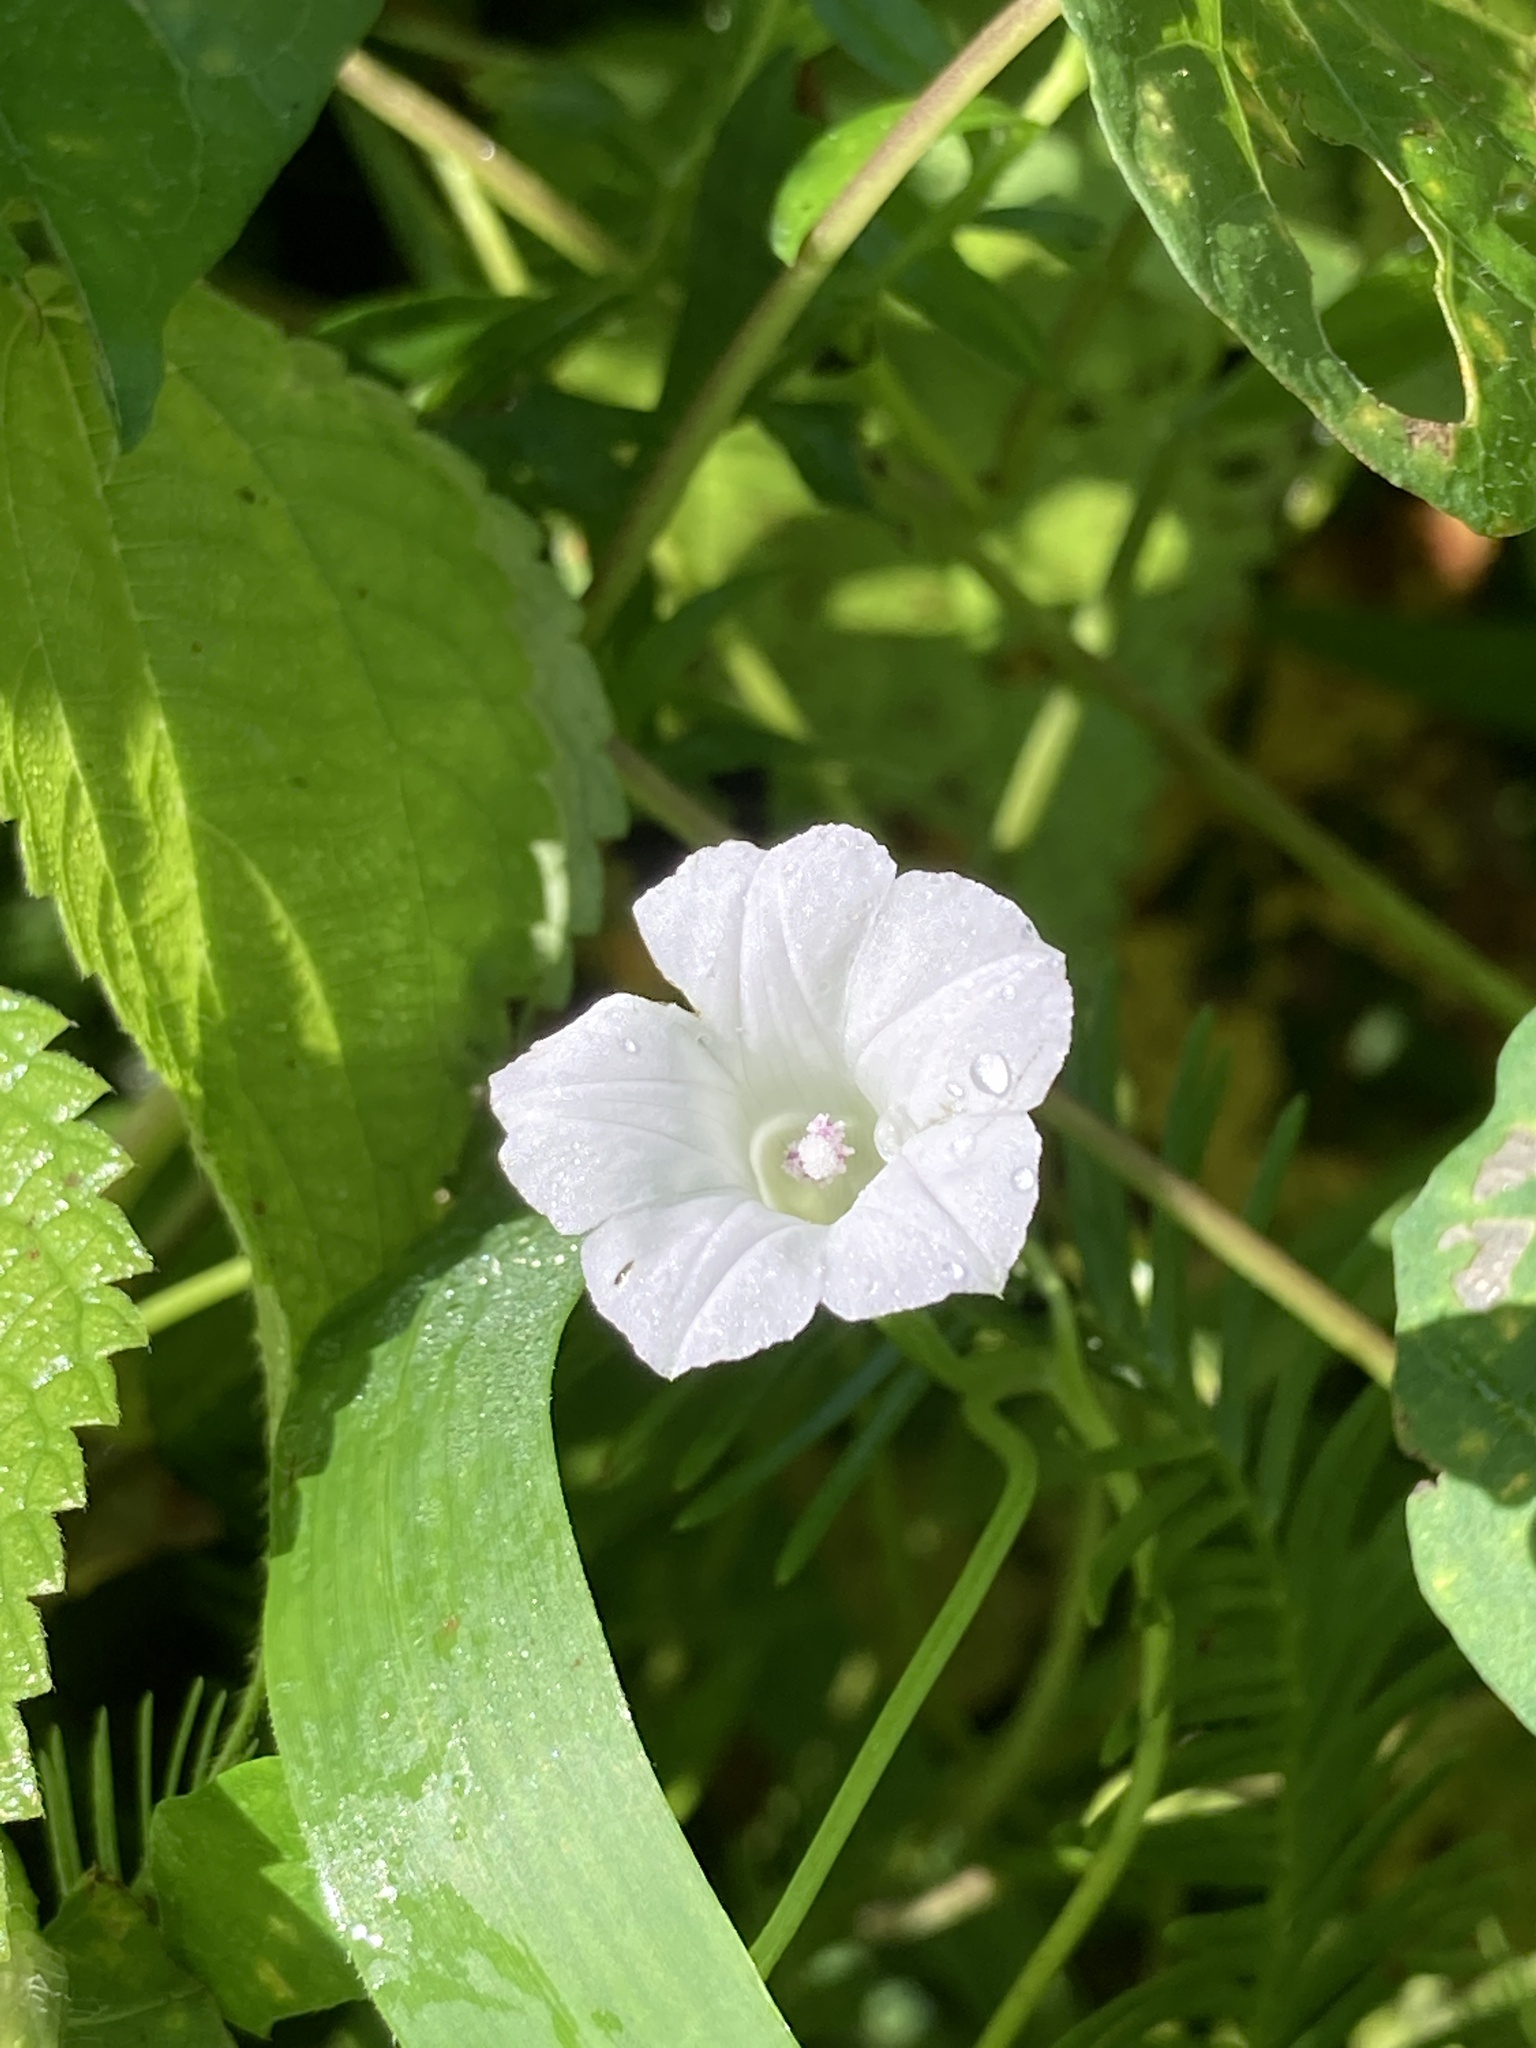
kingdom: Plantae
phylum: Tracheophyta
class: Magnoliopsida
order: Solanales
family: Convolvulaceae
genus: Ipomoea
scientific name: Ipomoea lacunosa
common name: White morning-glory
